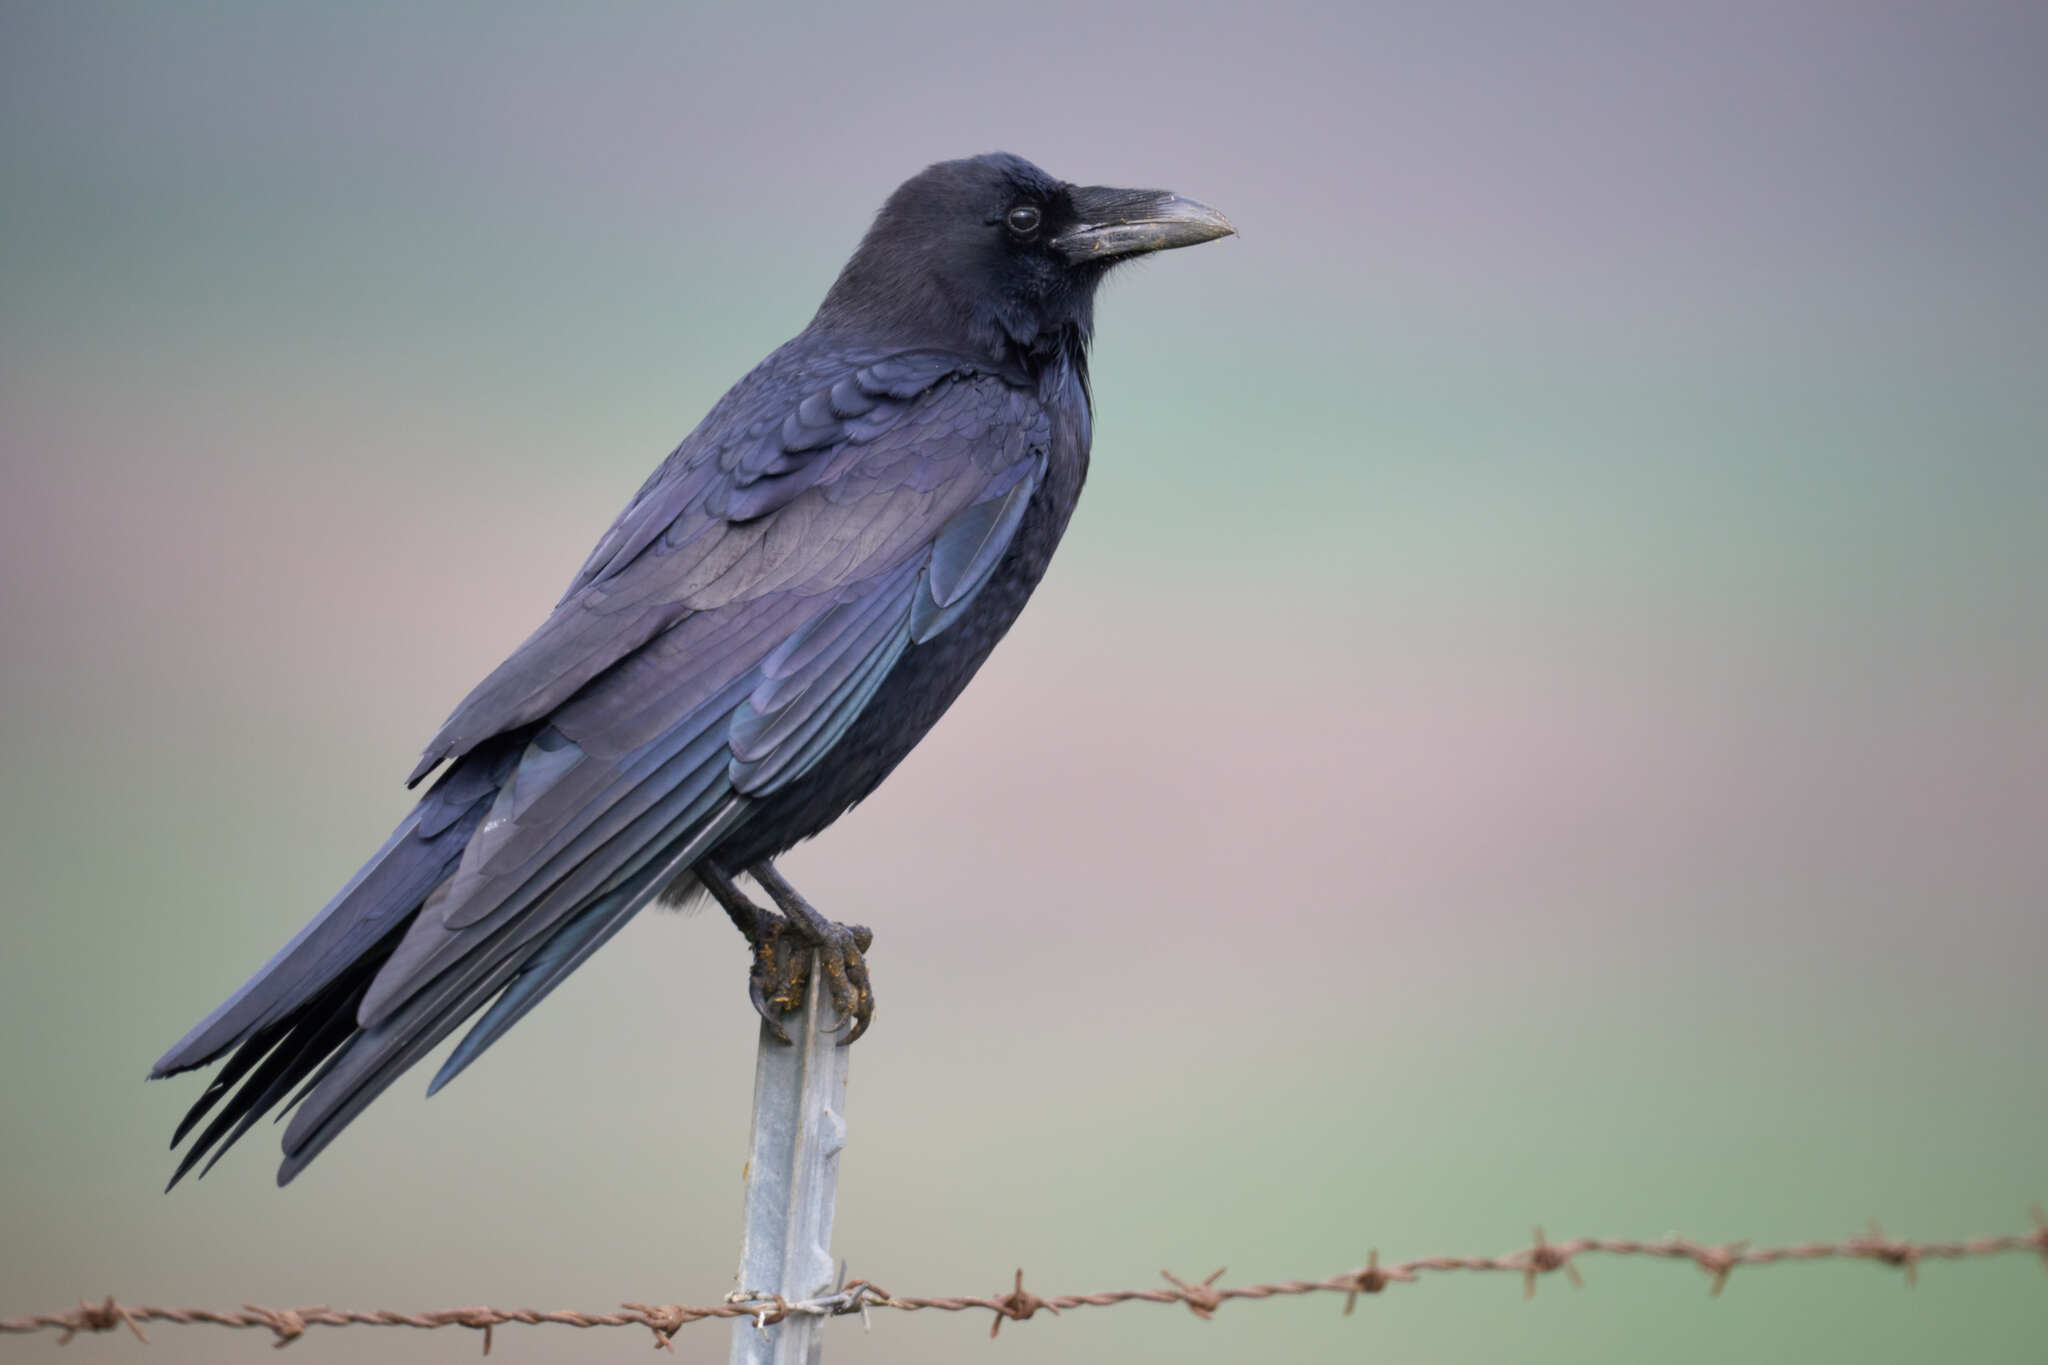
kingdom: Animalia
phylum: Chordata
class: Aves
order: Passeriformes
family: Corvidae
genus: Corvus
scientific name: Corvus corax
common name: Common raven
